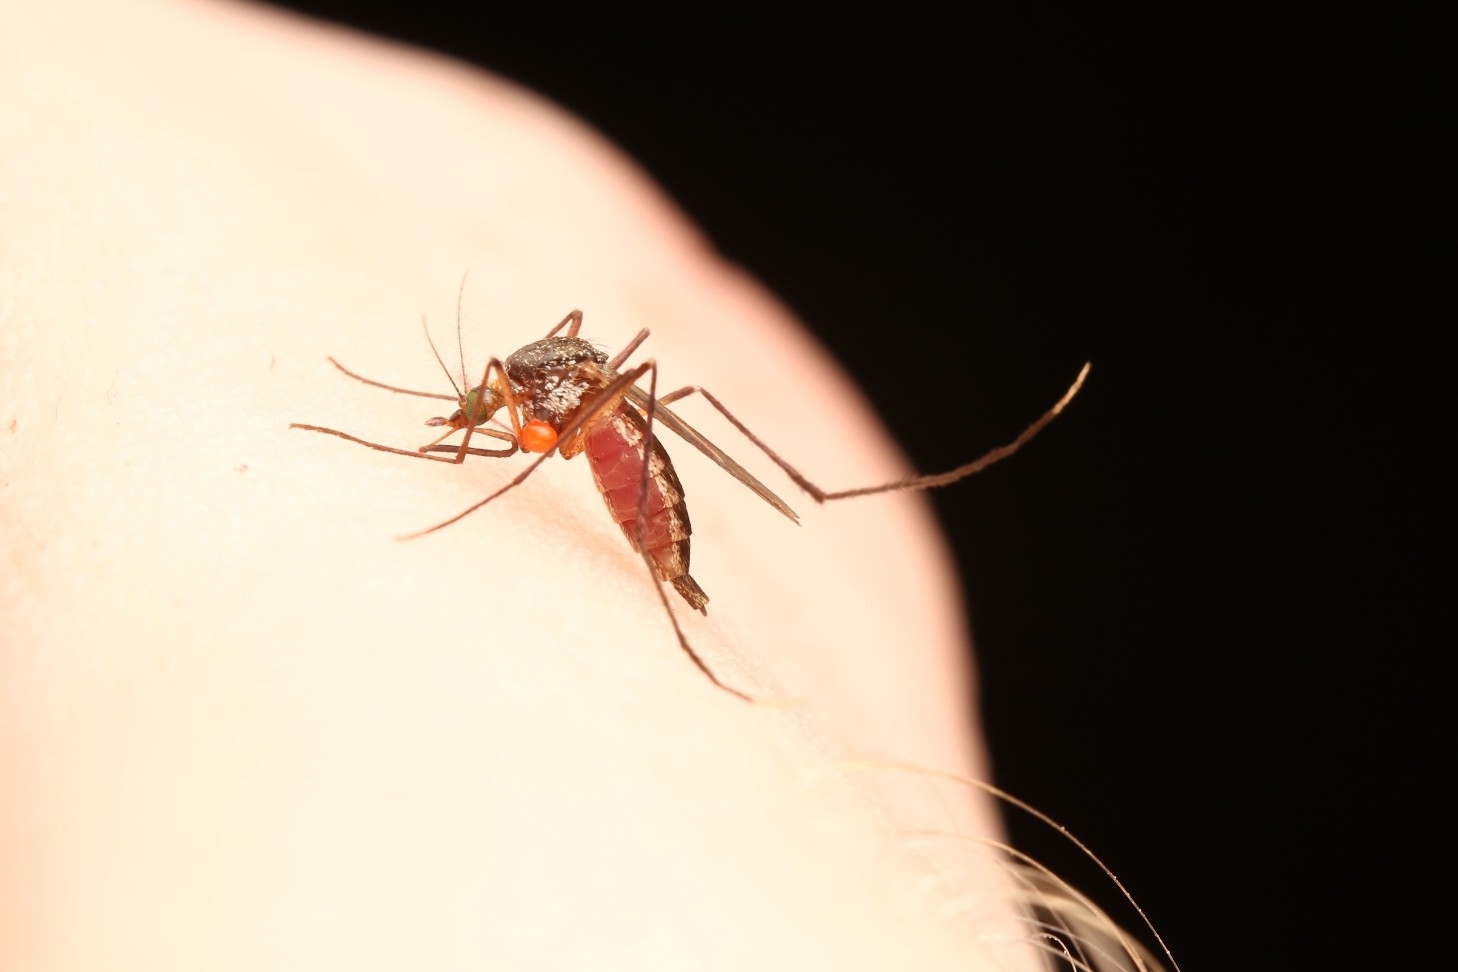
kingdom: Animalia
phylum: Arthropoda
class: Insecta
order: Diptera
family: Culicidae
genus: Psorophora
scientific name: Psorophora ferox
